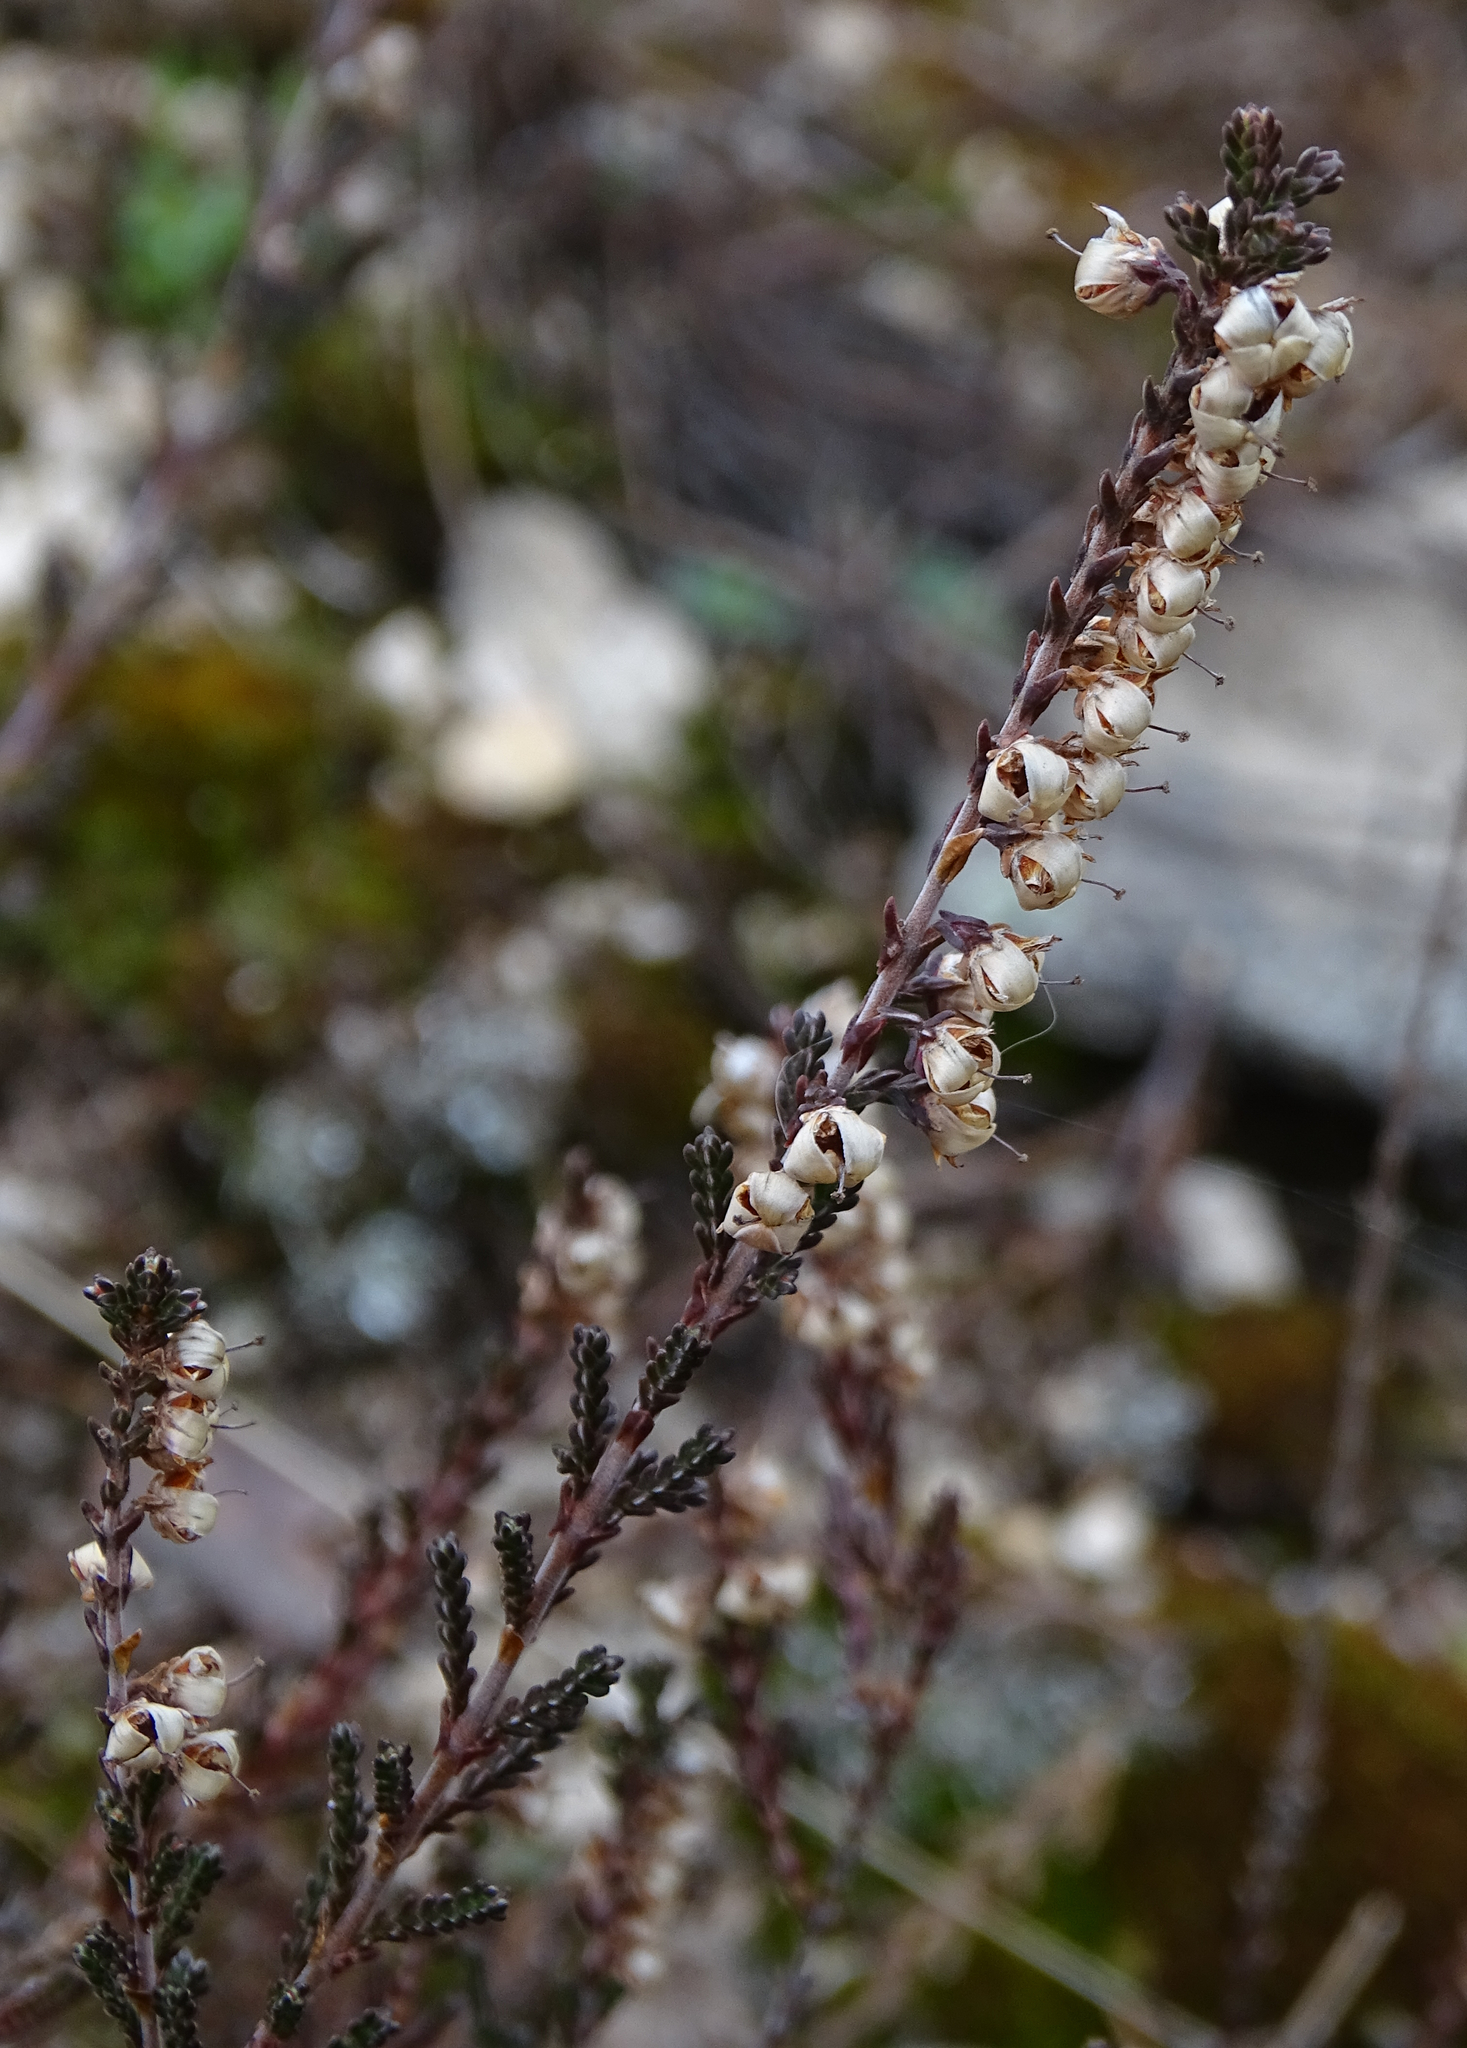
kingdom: Plantae
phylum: Tracheophyta
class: Magnoliopsida
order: Ericales
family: Ericaceae
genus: Calluna
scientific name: Calluna vulgaris
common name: Heather
